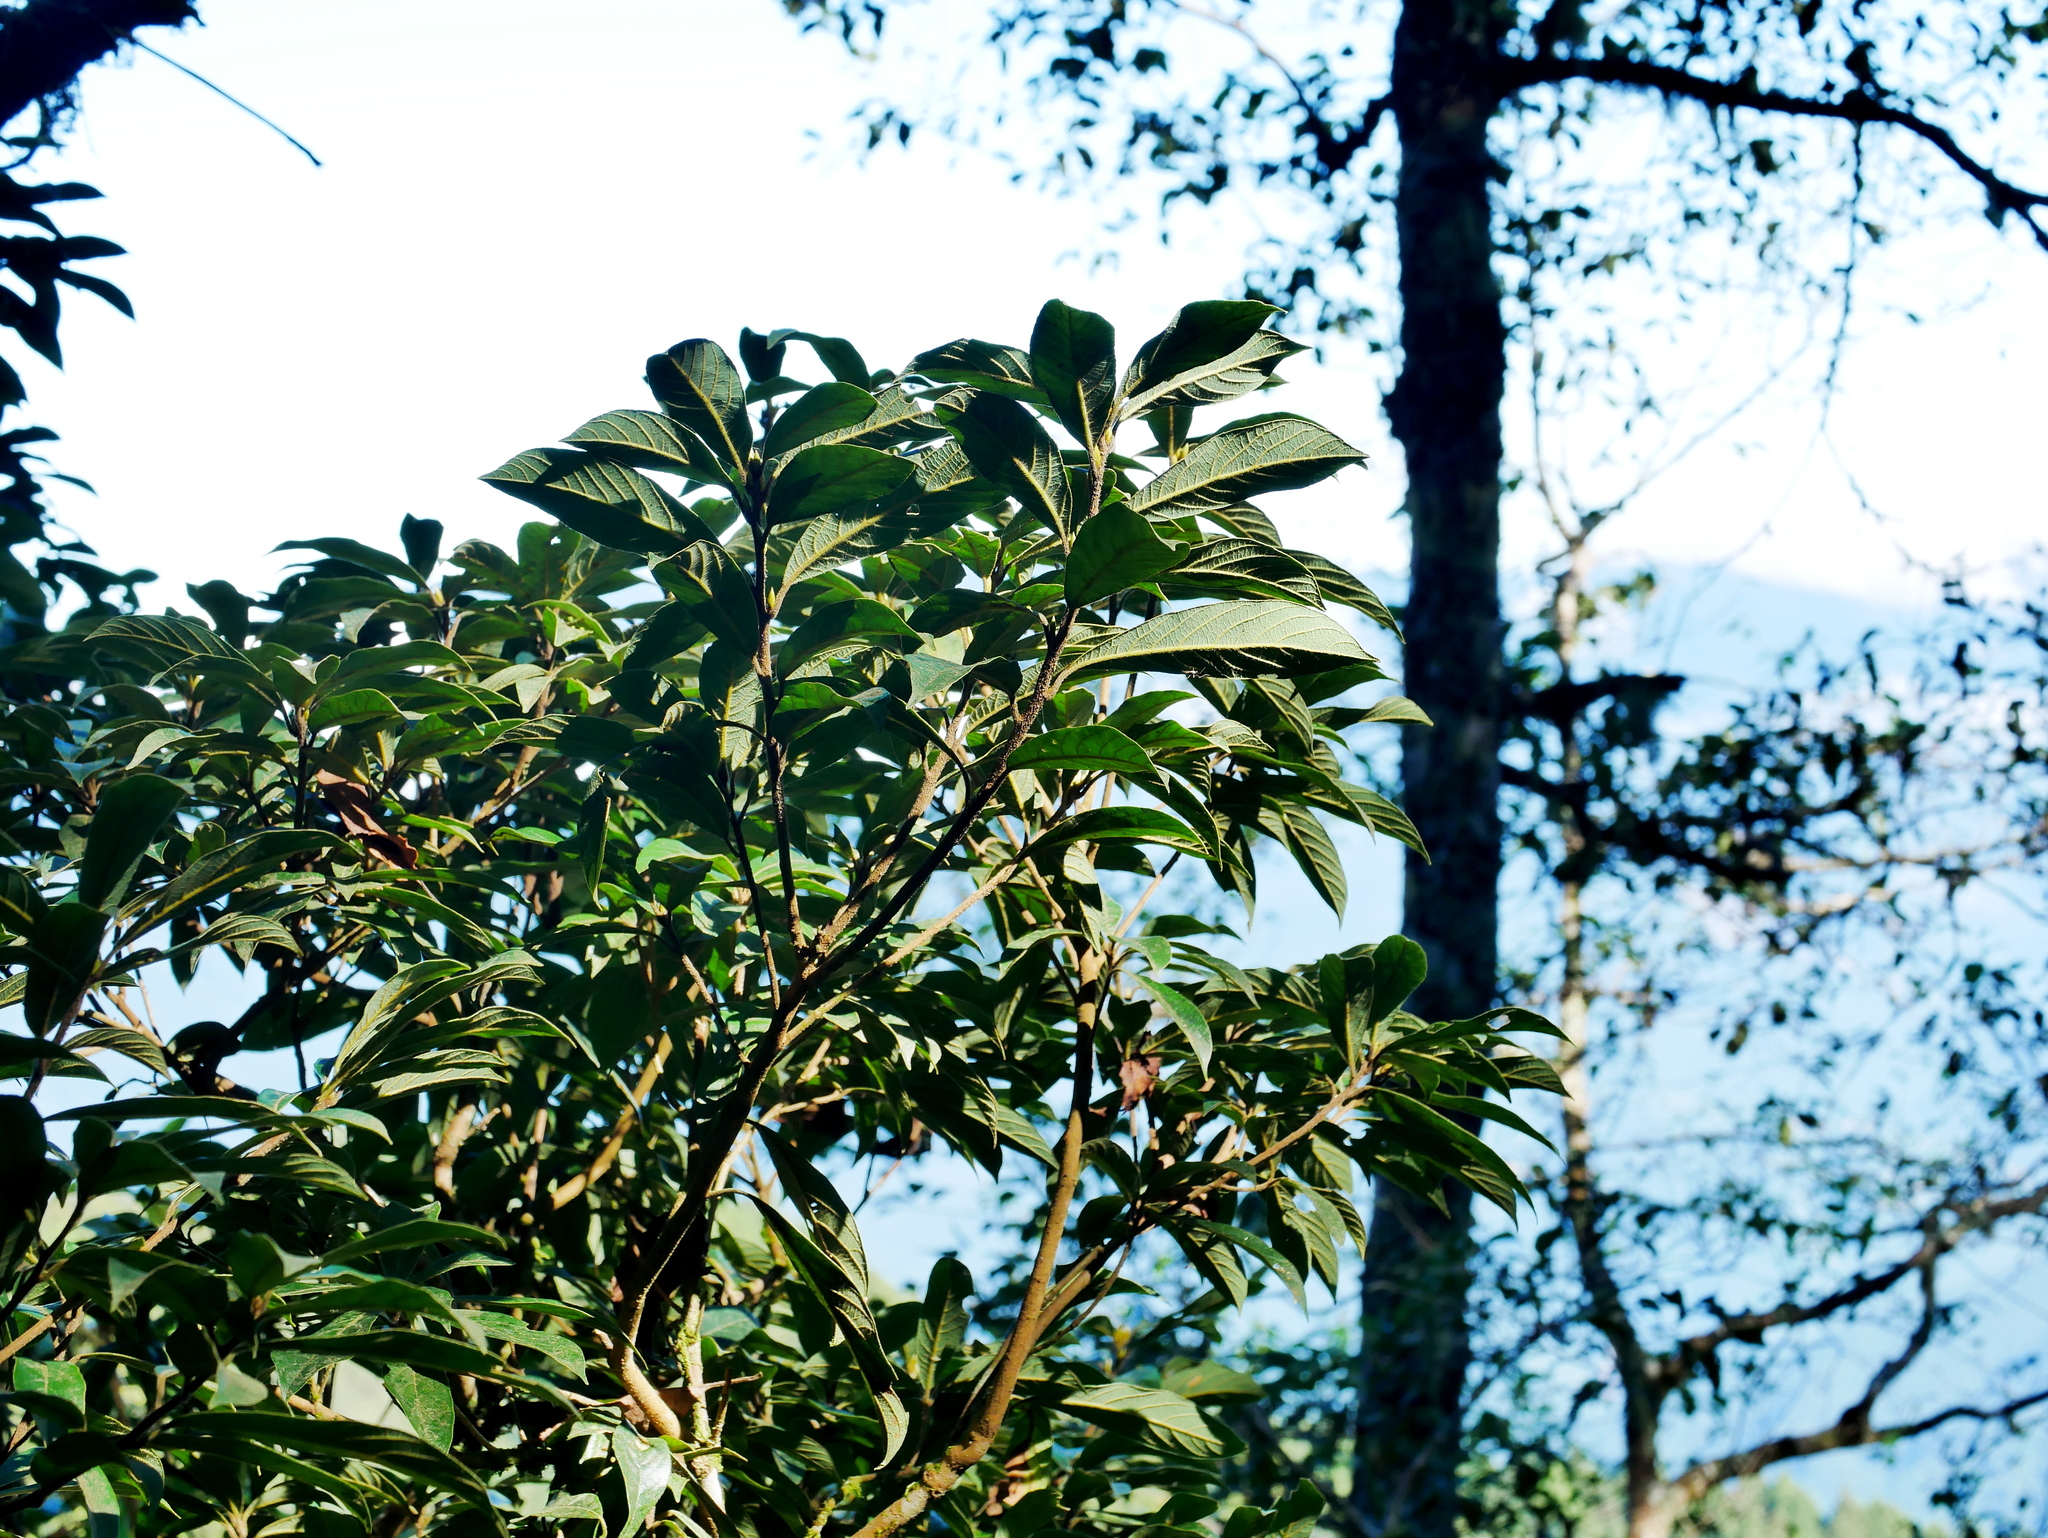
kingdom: Plantae
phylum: Tracheophyta
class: Magnoliopsida
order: Laurales
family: Lauraceae
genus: Actinodaphne
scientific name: Actinodaphne mushaensis
